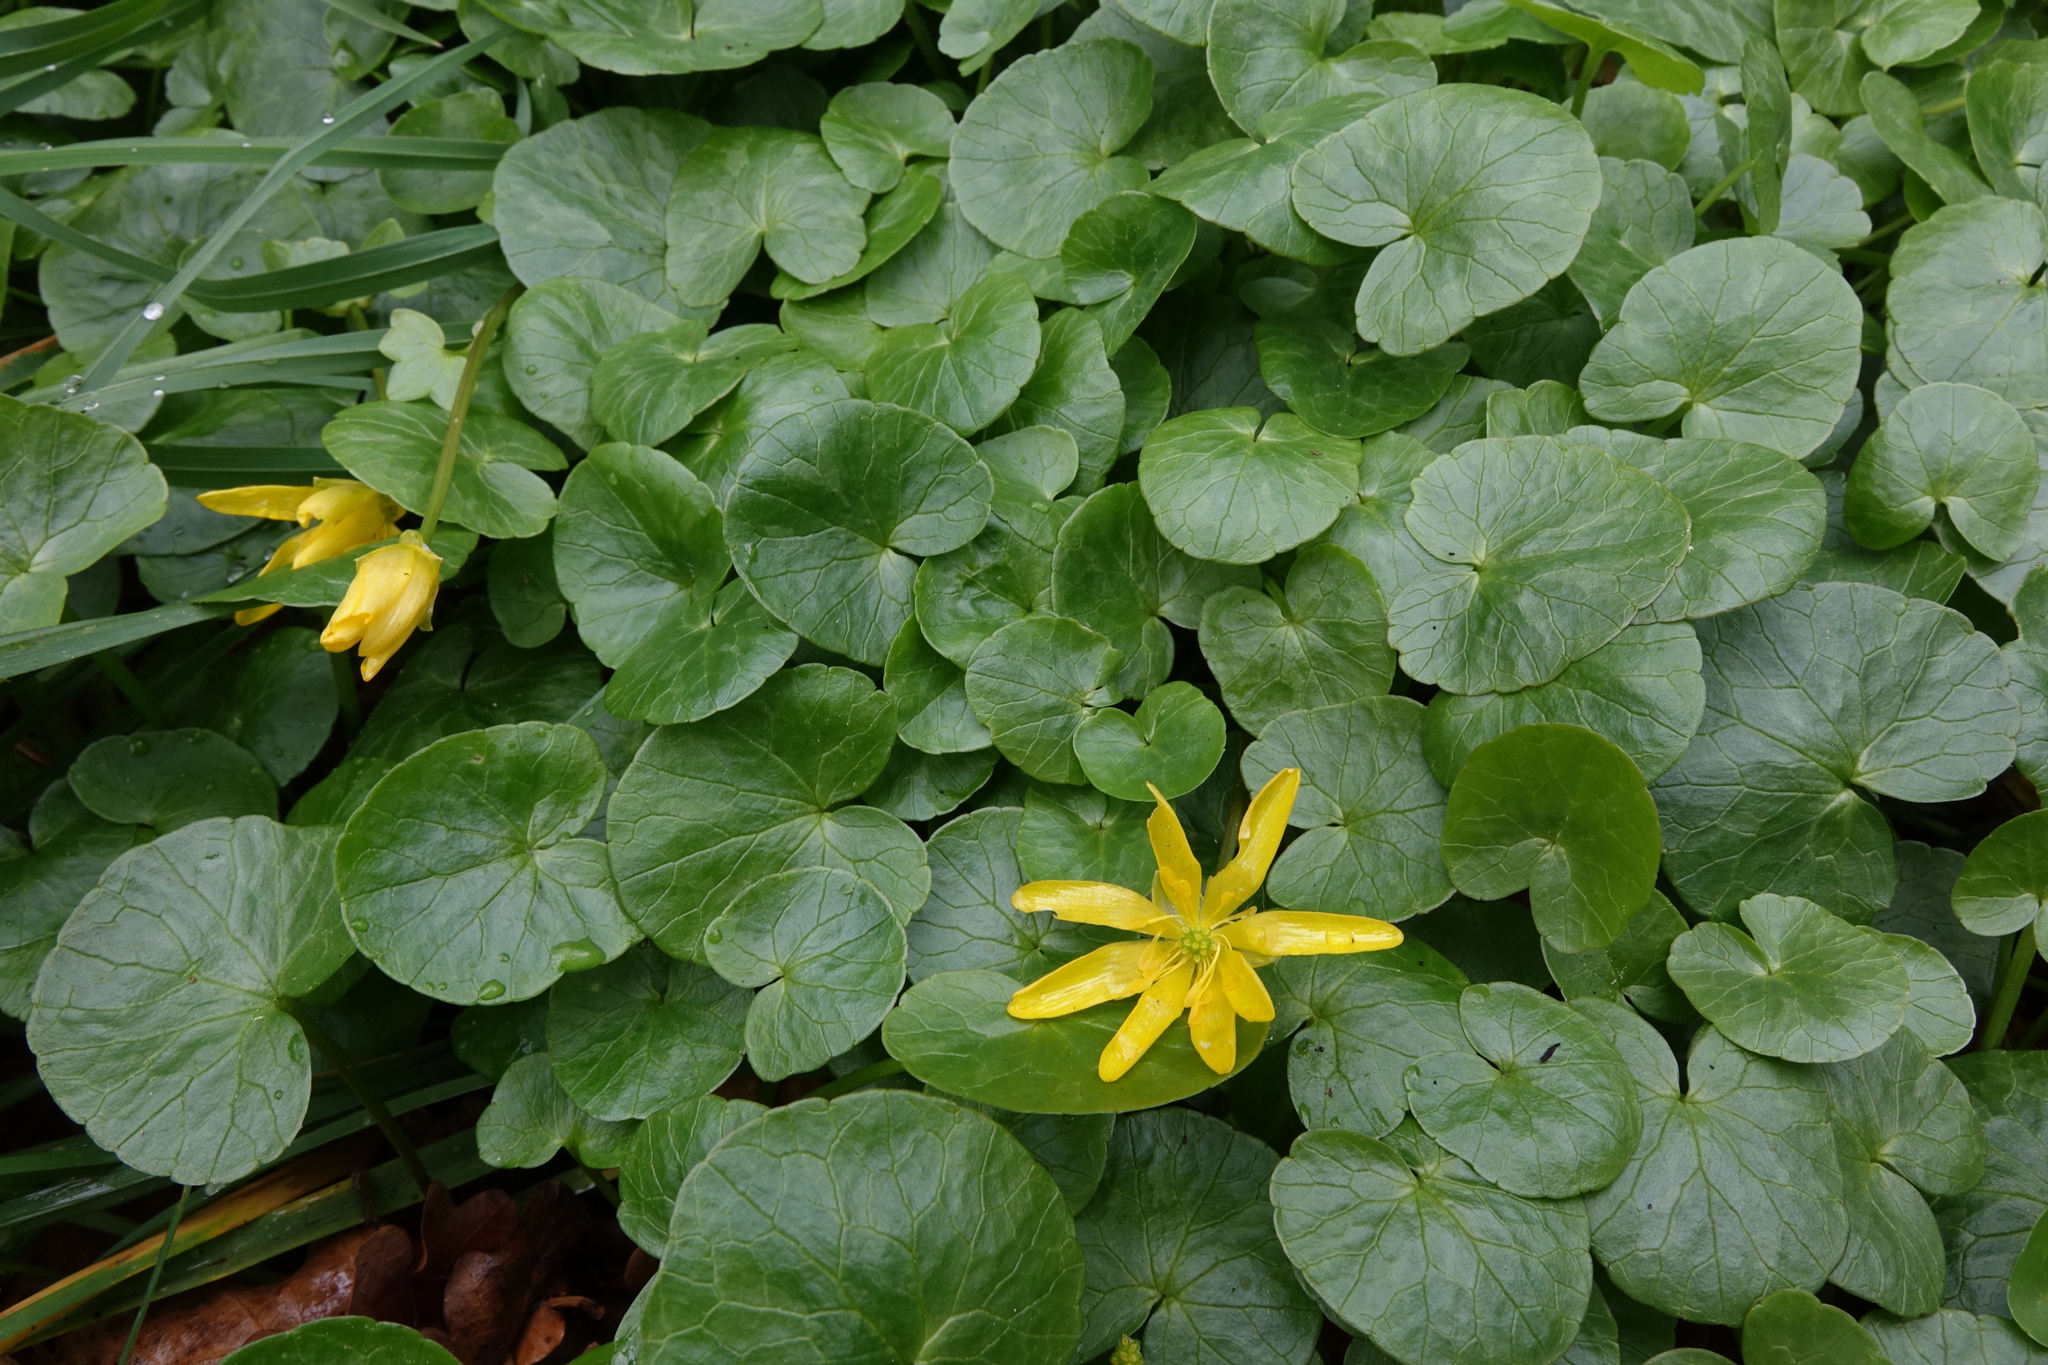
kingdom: Plantae
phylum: Tracheophyta
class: Magnoliopsida
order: Ranunculales
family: Ranunculaceae
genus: Ficaria
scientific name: Ficaria verna
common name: Lesser celandine
